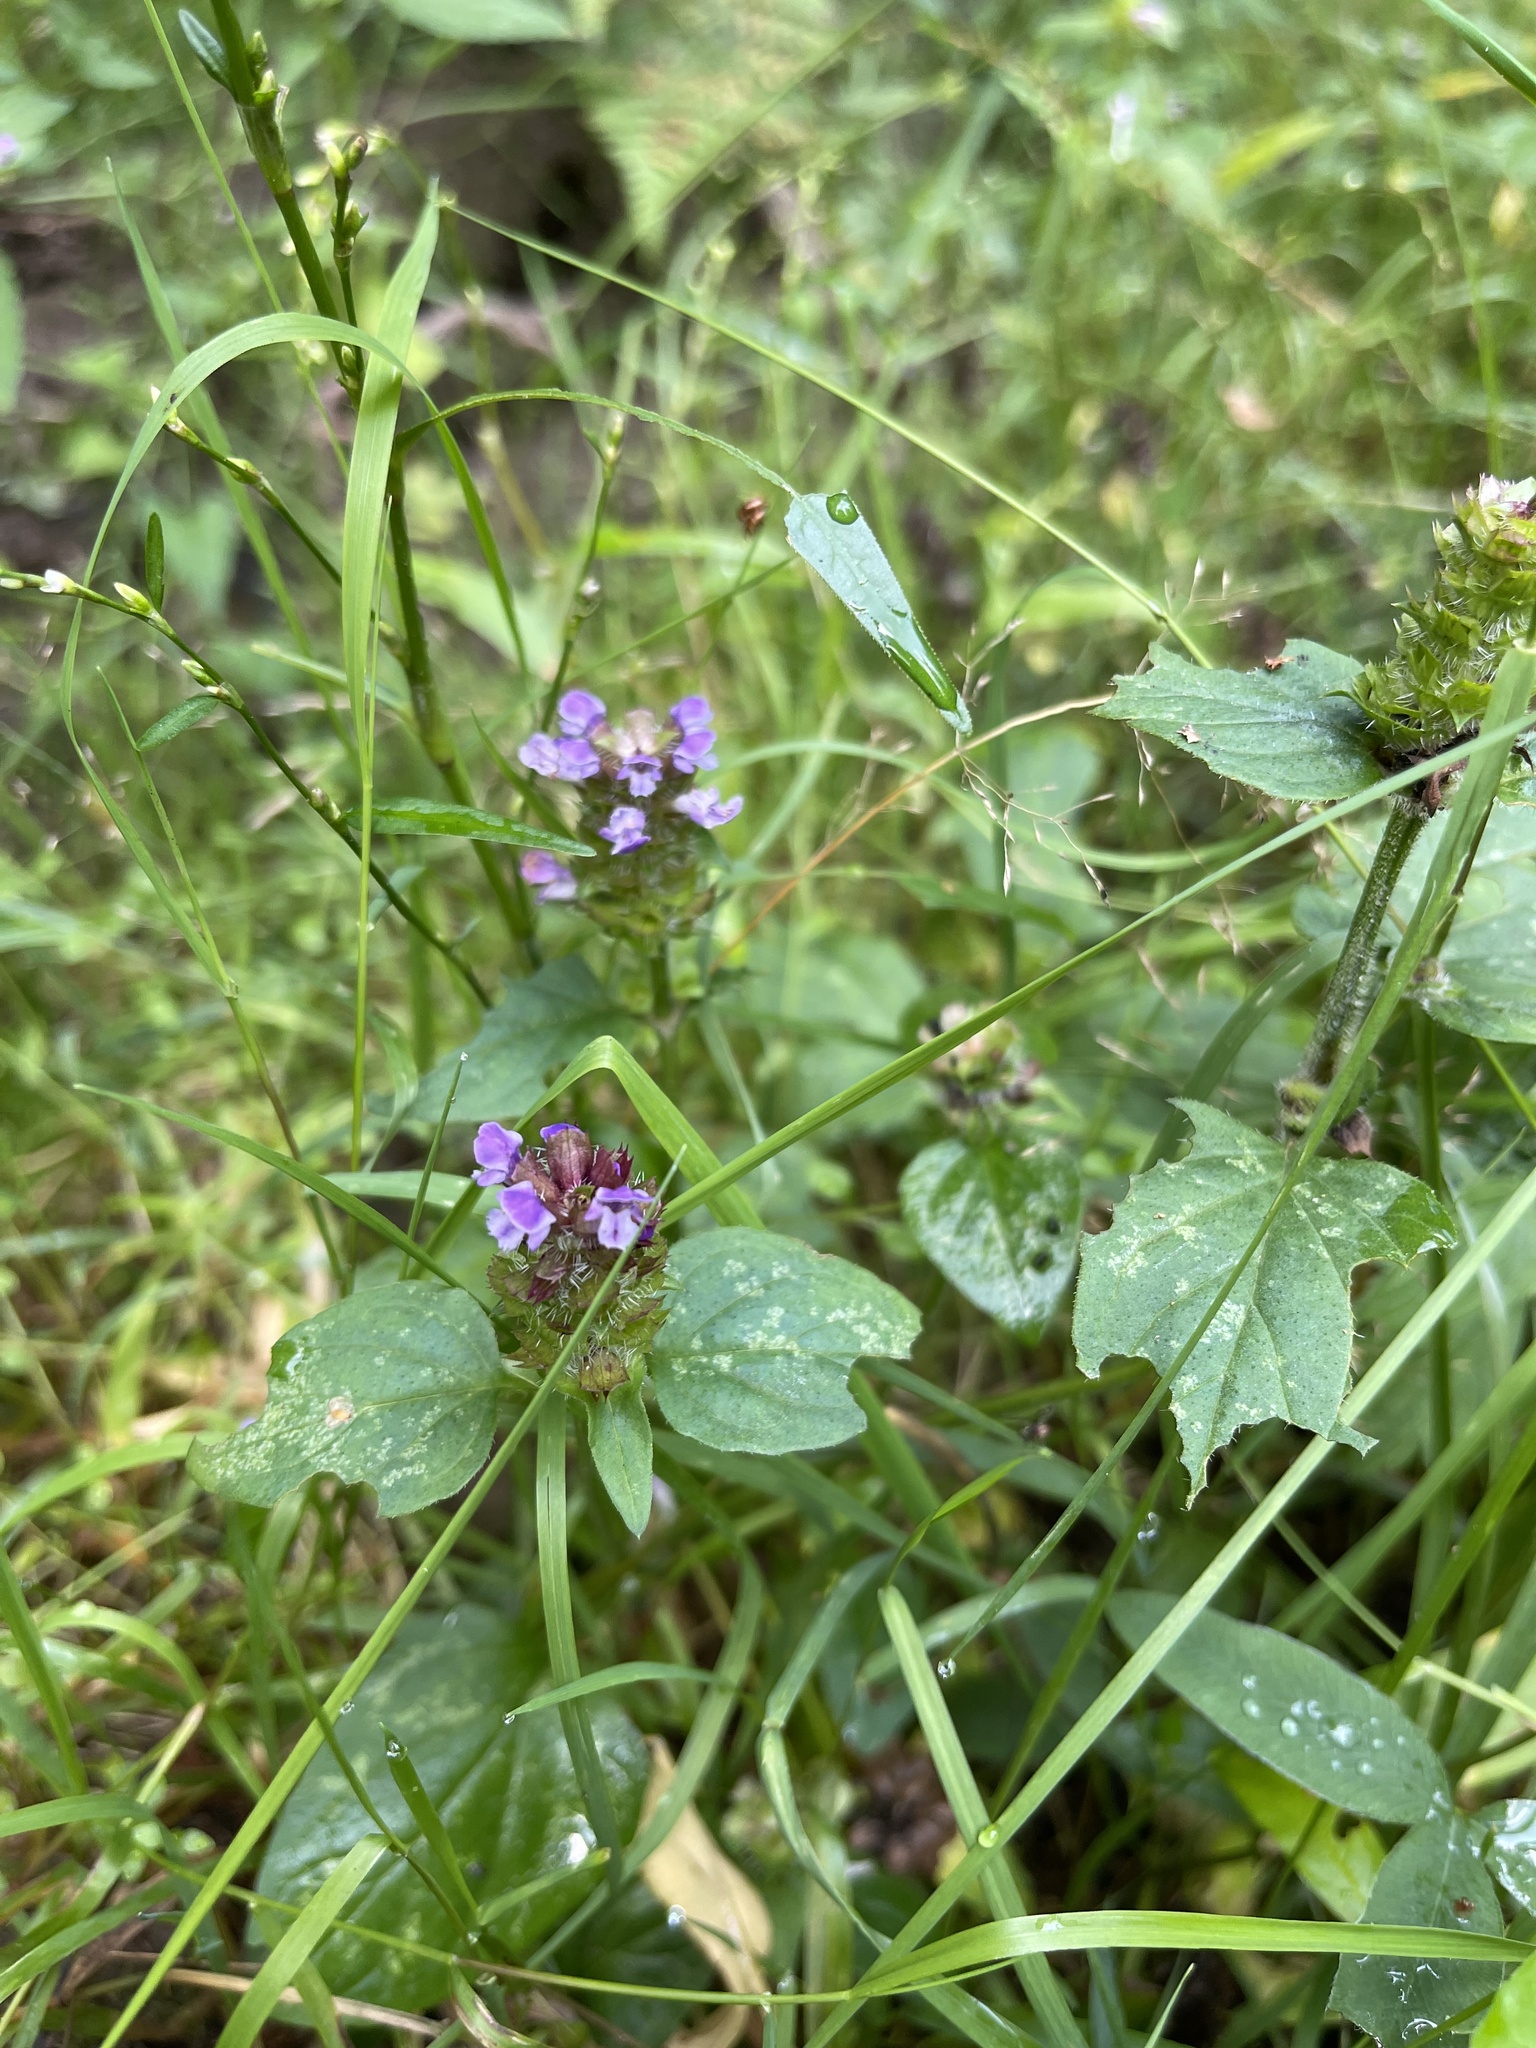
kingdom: Plantae
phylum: Tracheophyta
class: Magnoliopsida
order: Lamiales
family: Lamiaceae
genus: Prunella
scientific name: Prunella vulgaris
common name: Heal-all
